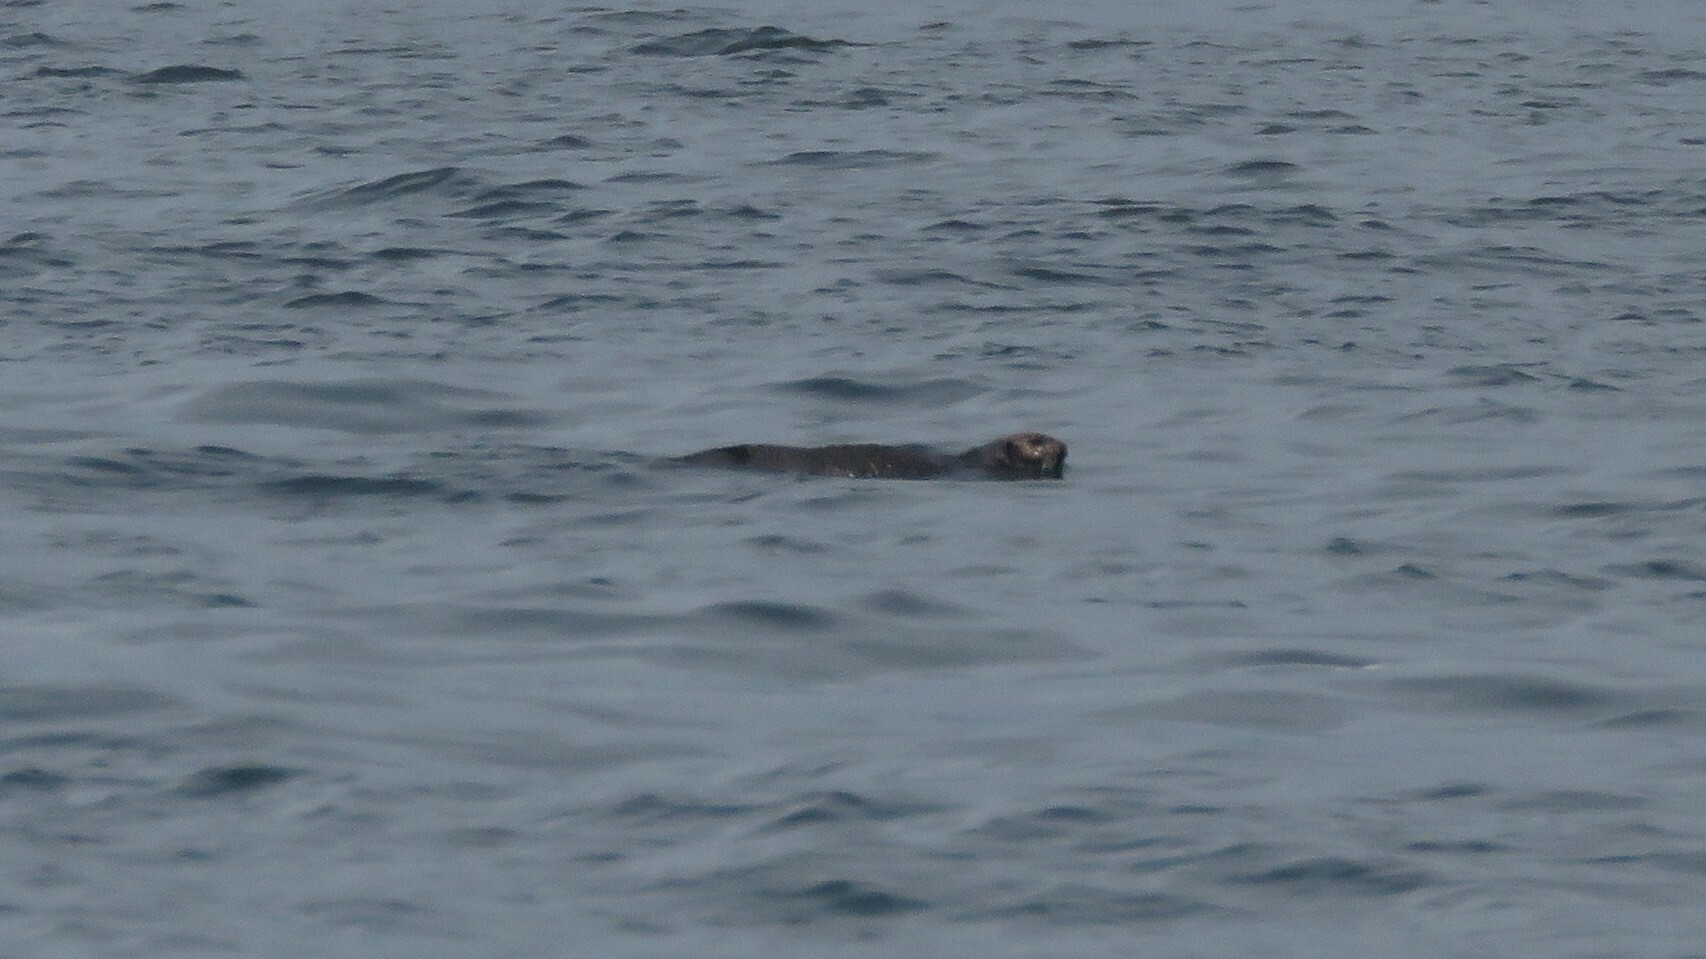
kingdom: Animalia
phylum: Chordata
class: Mammalia
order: Carnivora
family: Mustelidae
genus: Enhydra
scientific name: Enhydra lutris
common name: Sea otter
